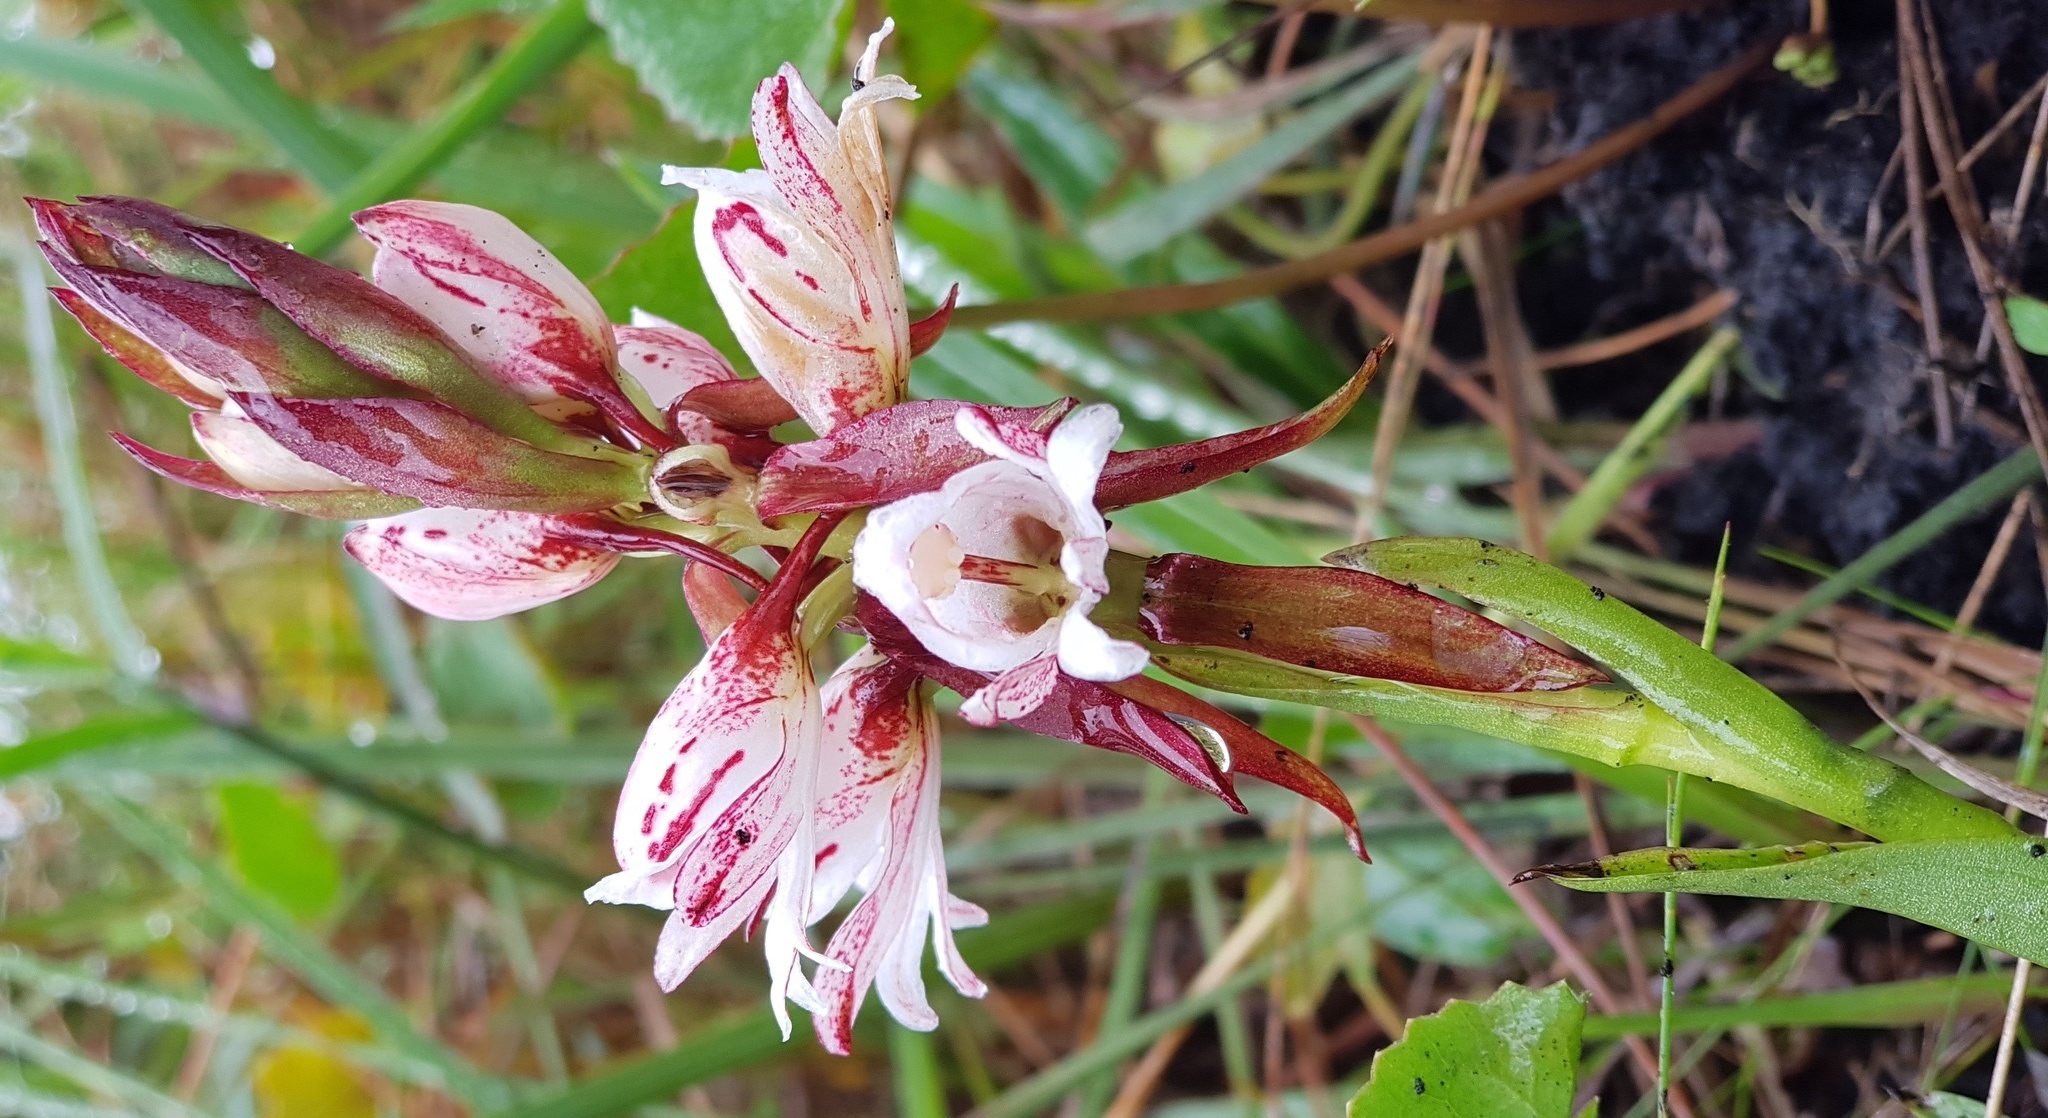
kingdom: Plantae
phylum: Tracheophyta
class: Liliopsida
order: Asparagales
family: Orchidaceae
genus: Satyrium
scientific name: Satyrium sphaerocarpum
